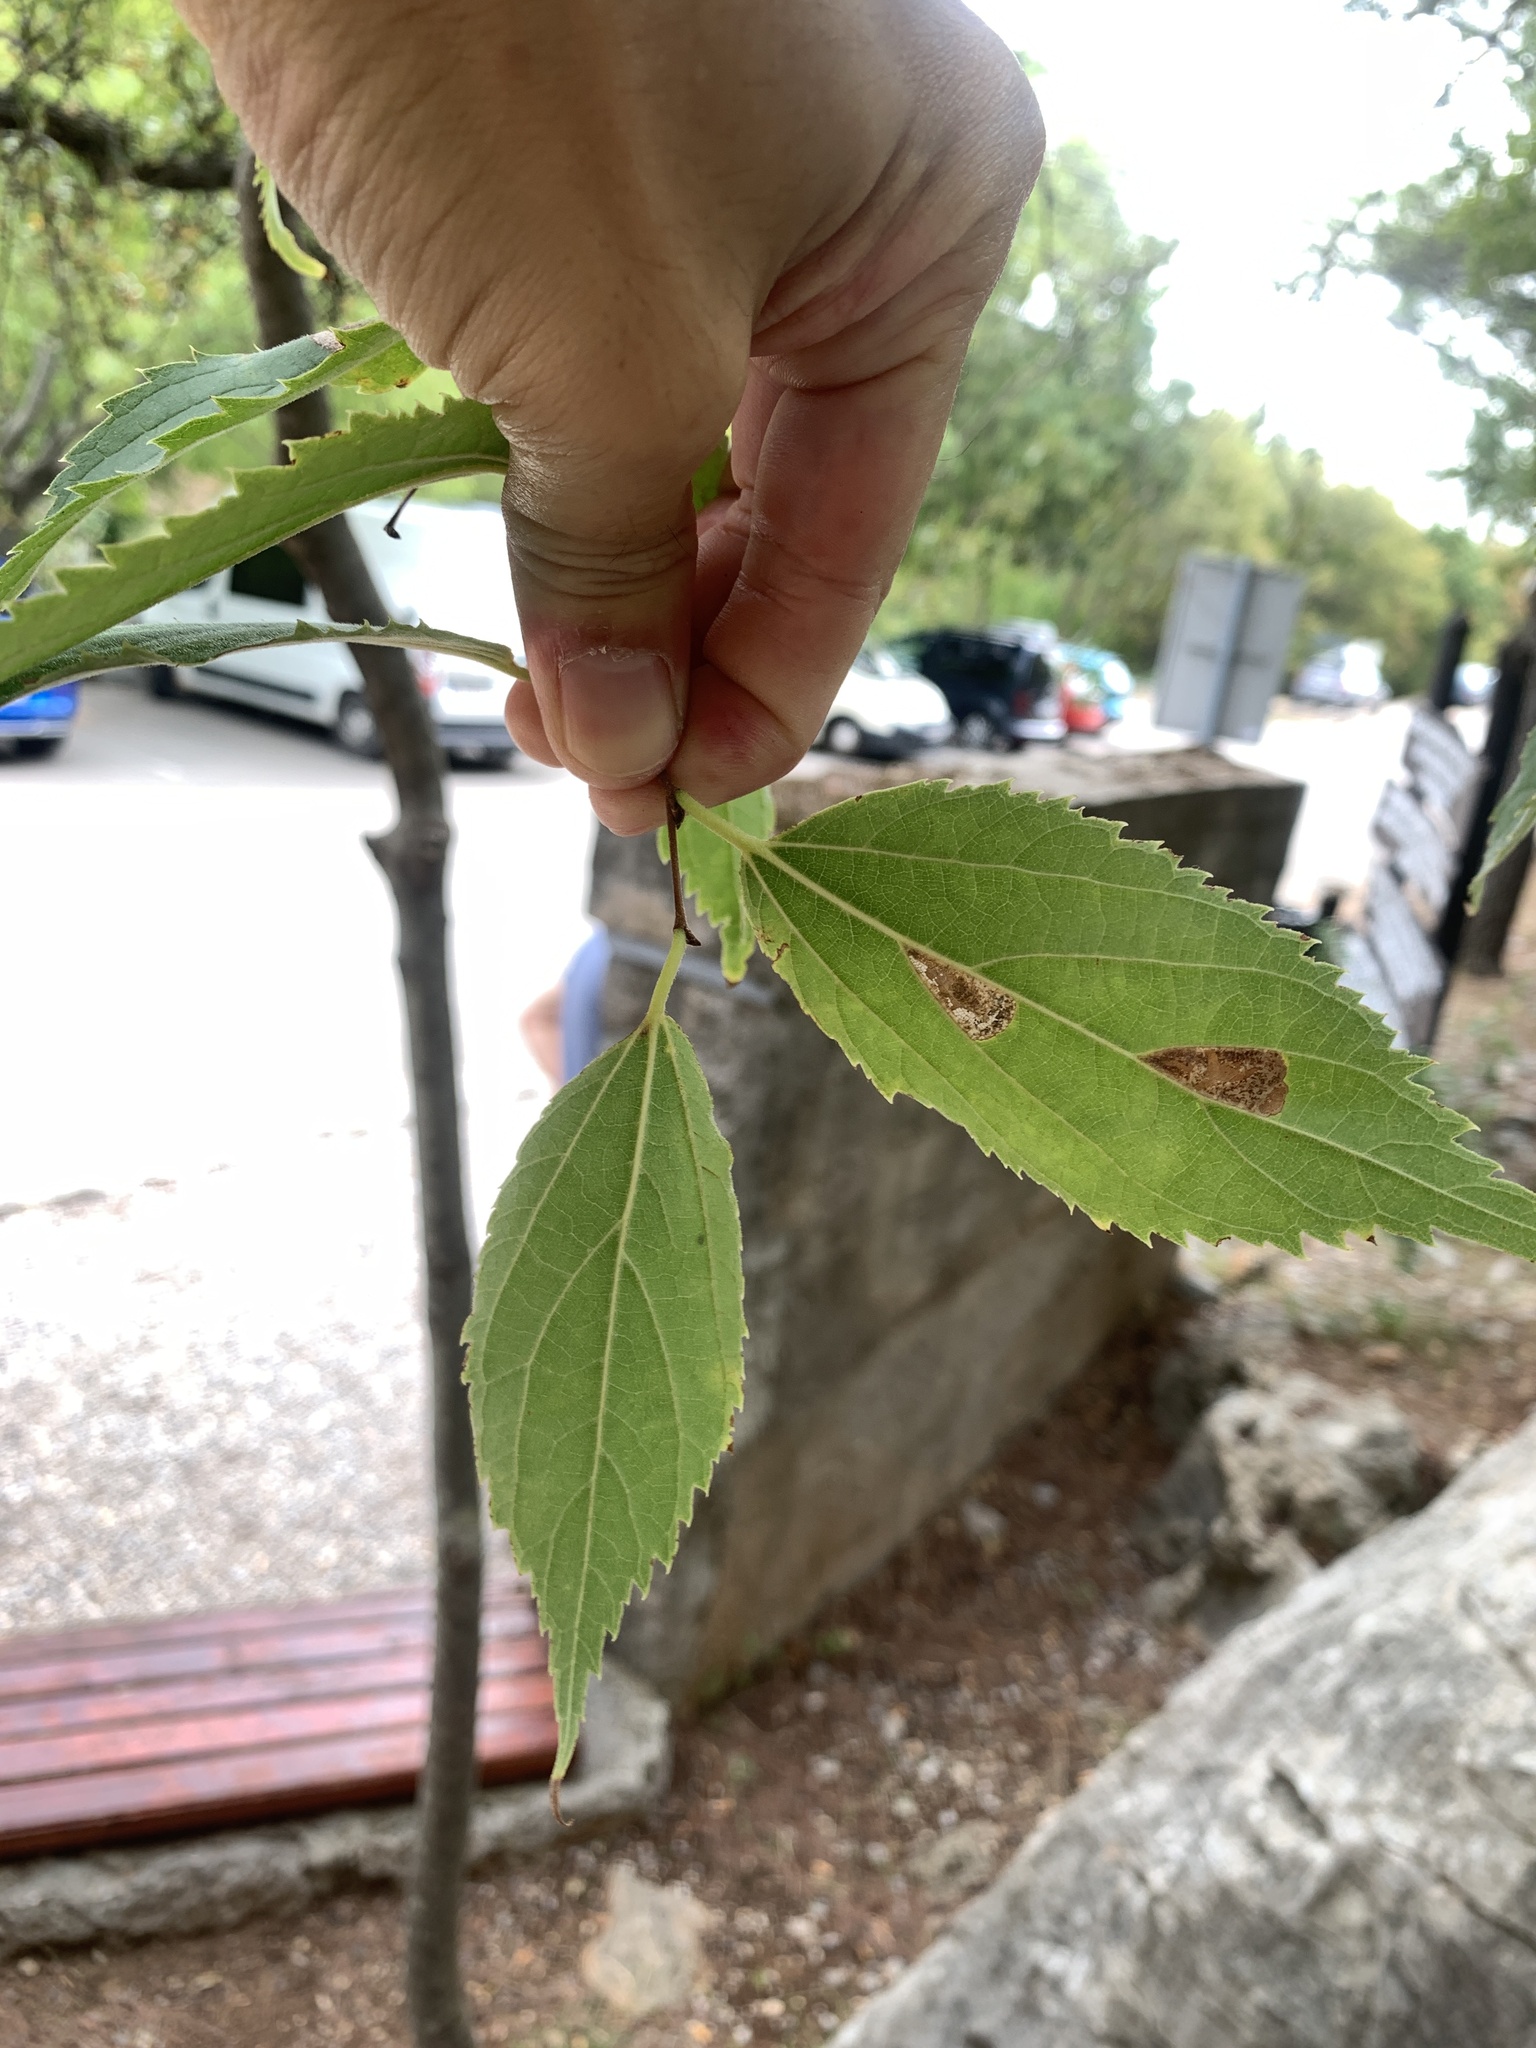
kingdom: Plantae
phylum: Tracheophyta
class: Magnoliopsida
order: Rosales
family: Cannabaceae
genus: Celtis
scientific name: Celtis australis
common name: European hackberry
